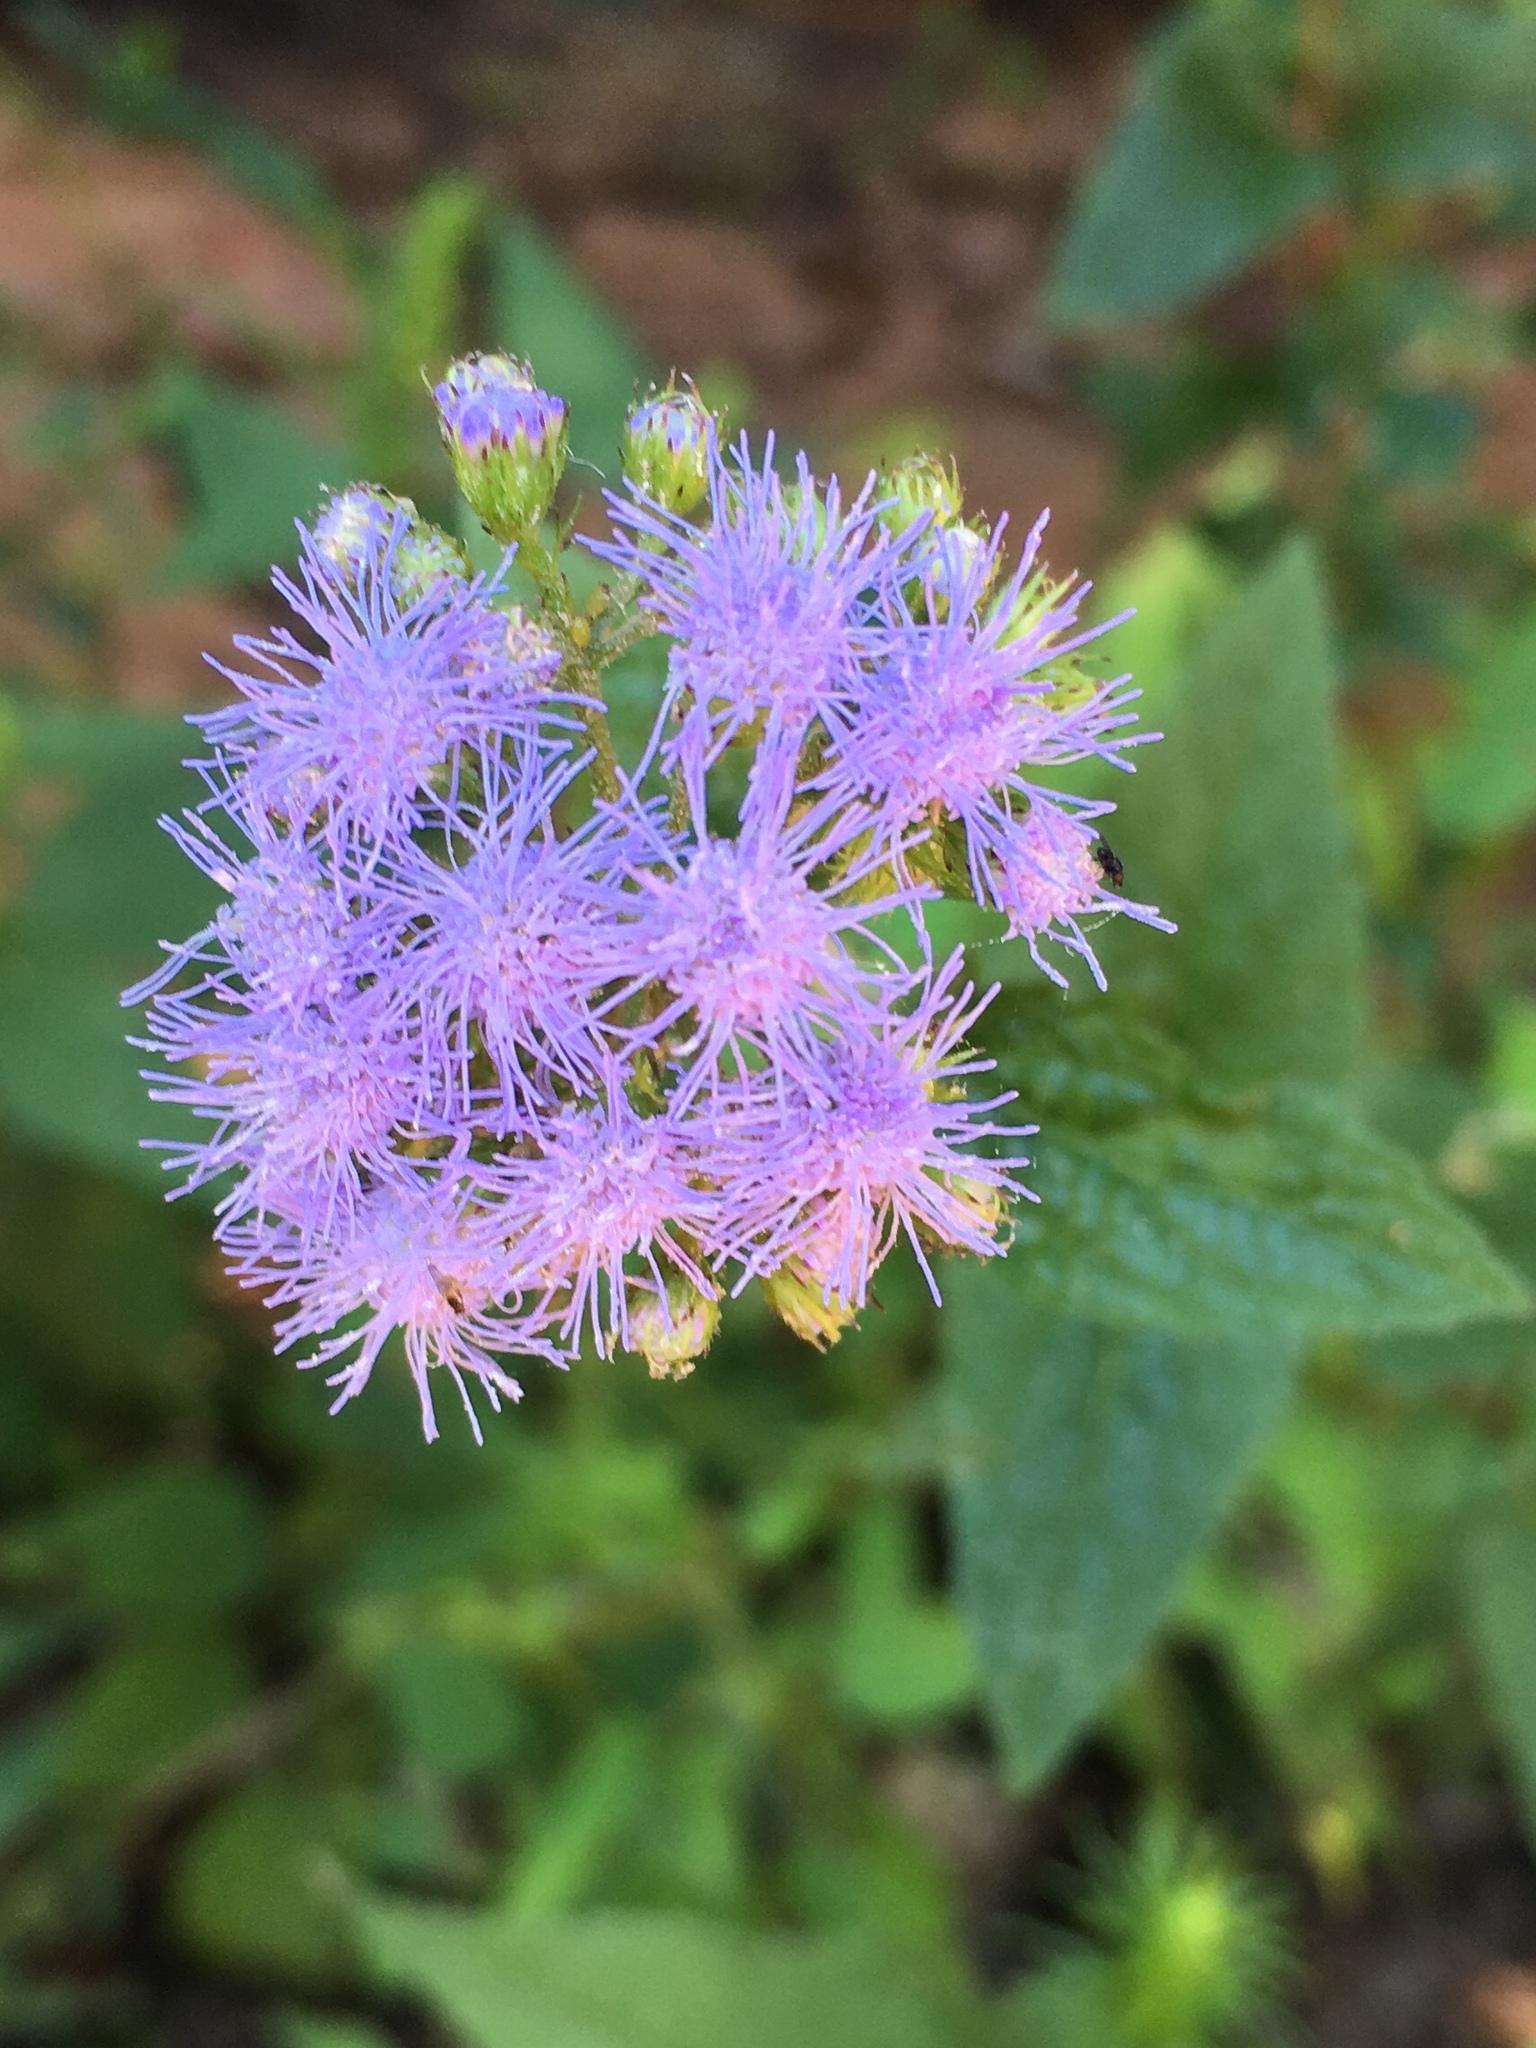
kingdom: Plantae
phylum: Tracheophyta
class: Magnoliopsida
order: Asterales
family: Asteraceae
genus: Conoclinium
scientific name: Conoclinium coelestinum
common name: Blue mistflower
